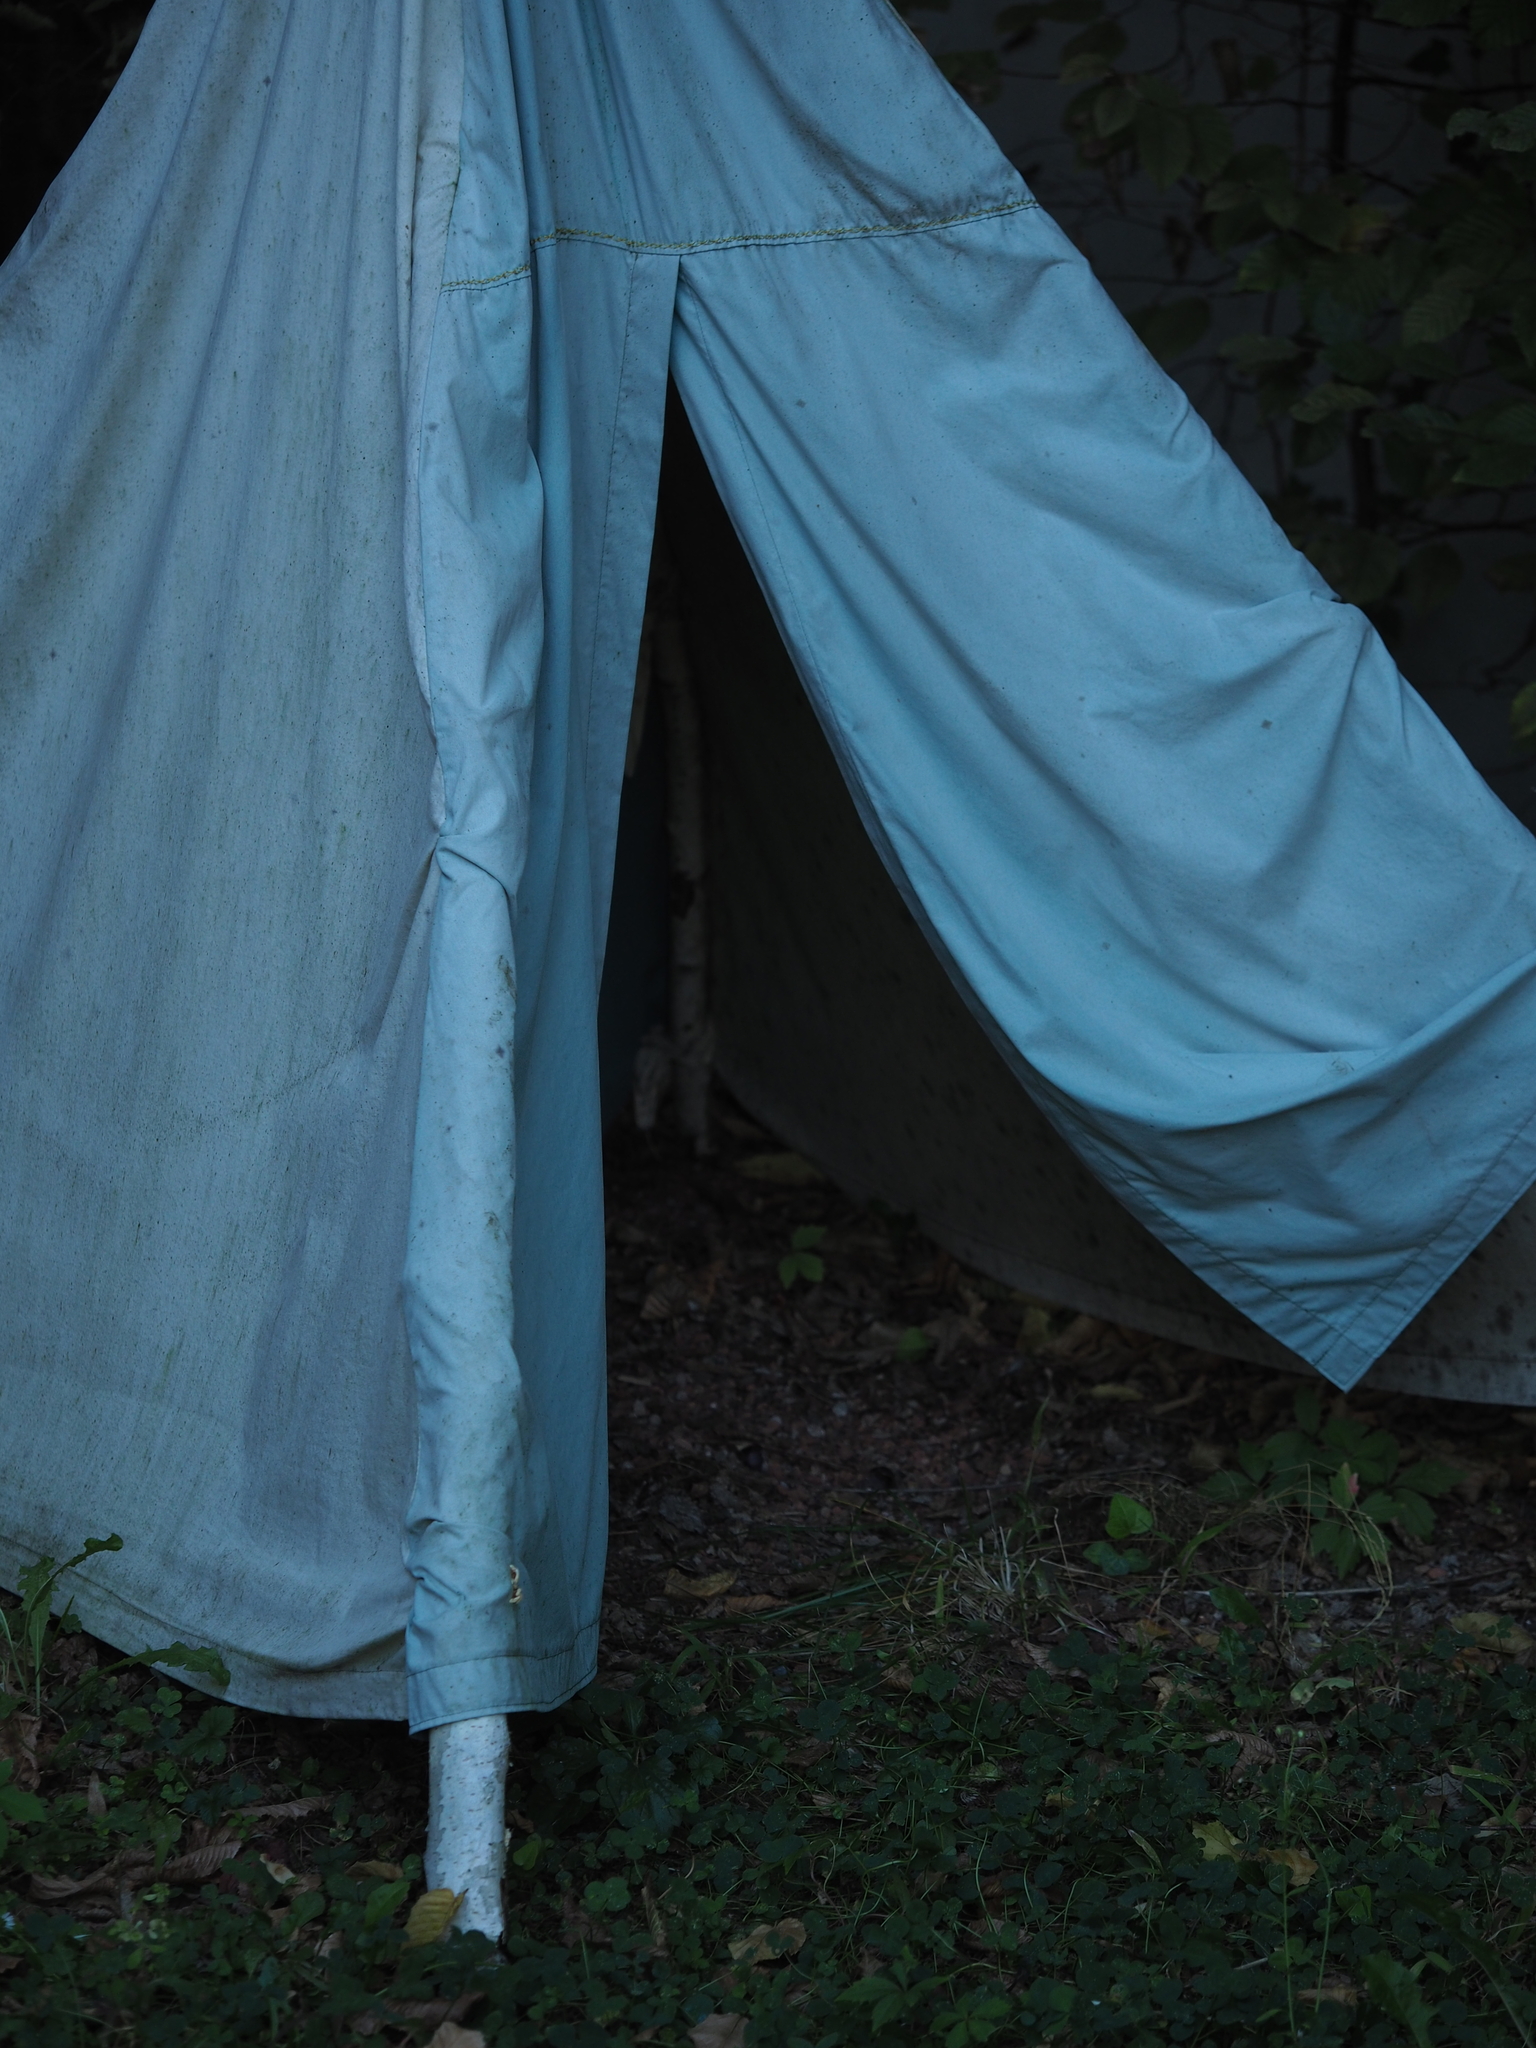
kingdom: Fungi
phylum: Basidiomycota
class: Agaricomycetes
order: Polyporales
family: Polyporaceae
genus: Trametes
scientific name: Trametes versicolor
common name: Turkeytail
